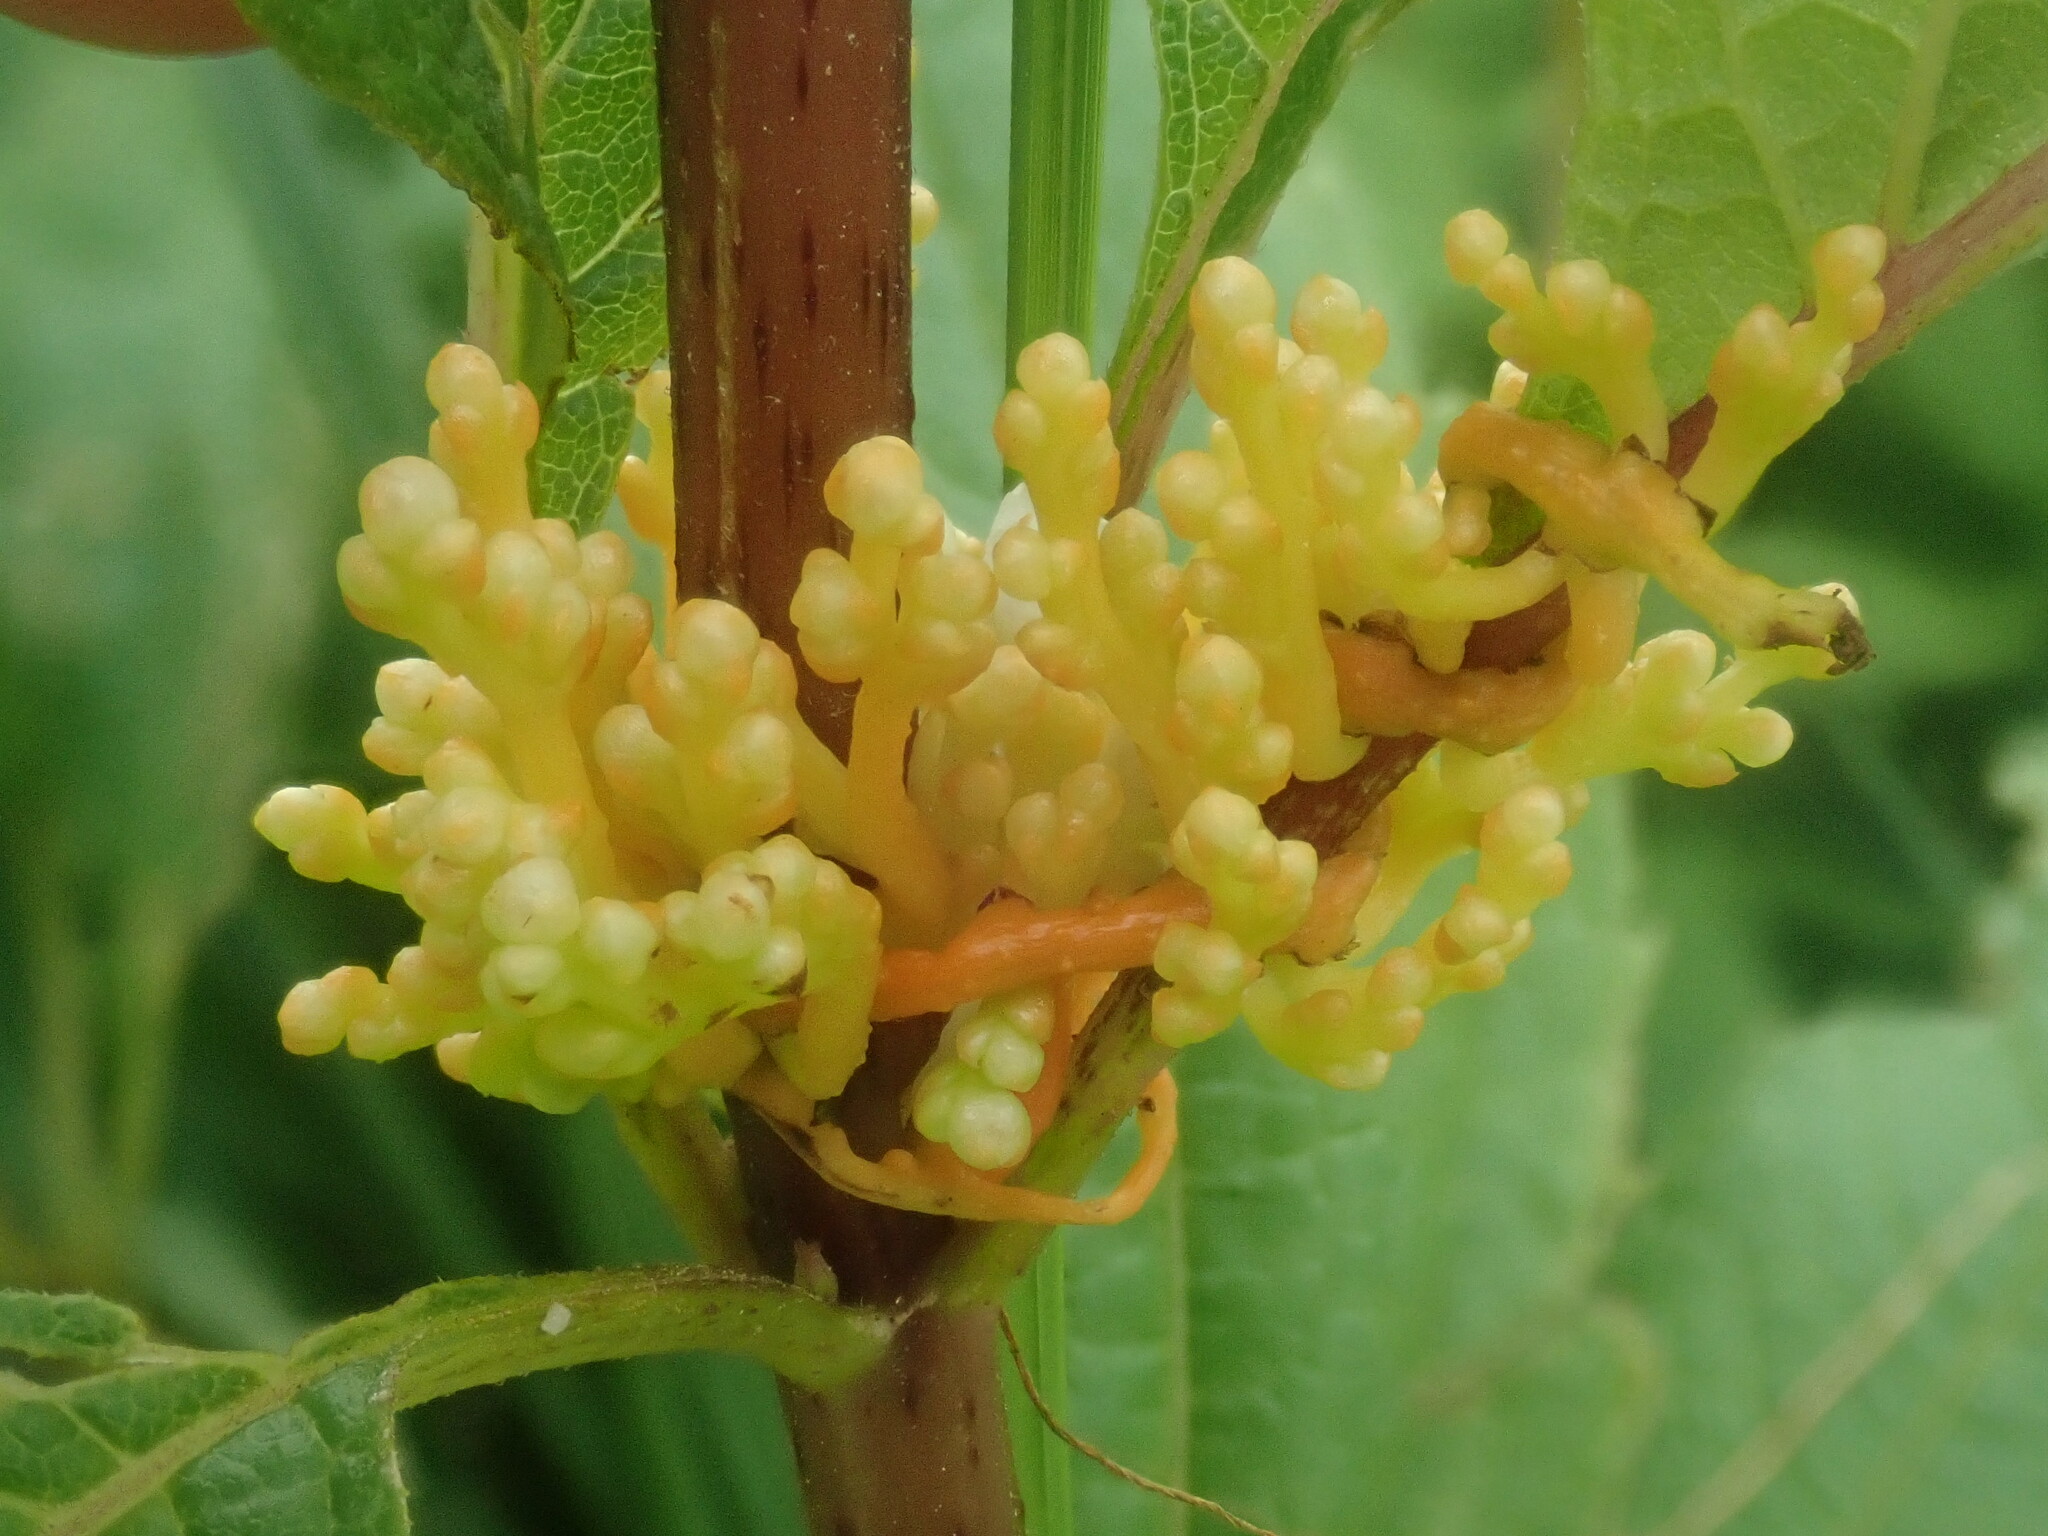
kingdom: Plantae
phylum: Tracheophyta
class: Magnoliopsida
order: Solanales
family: Convolvulaceae
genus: Cuscuta
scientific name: Cuscuta
